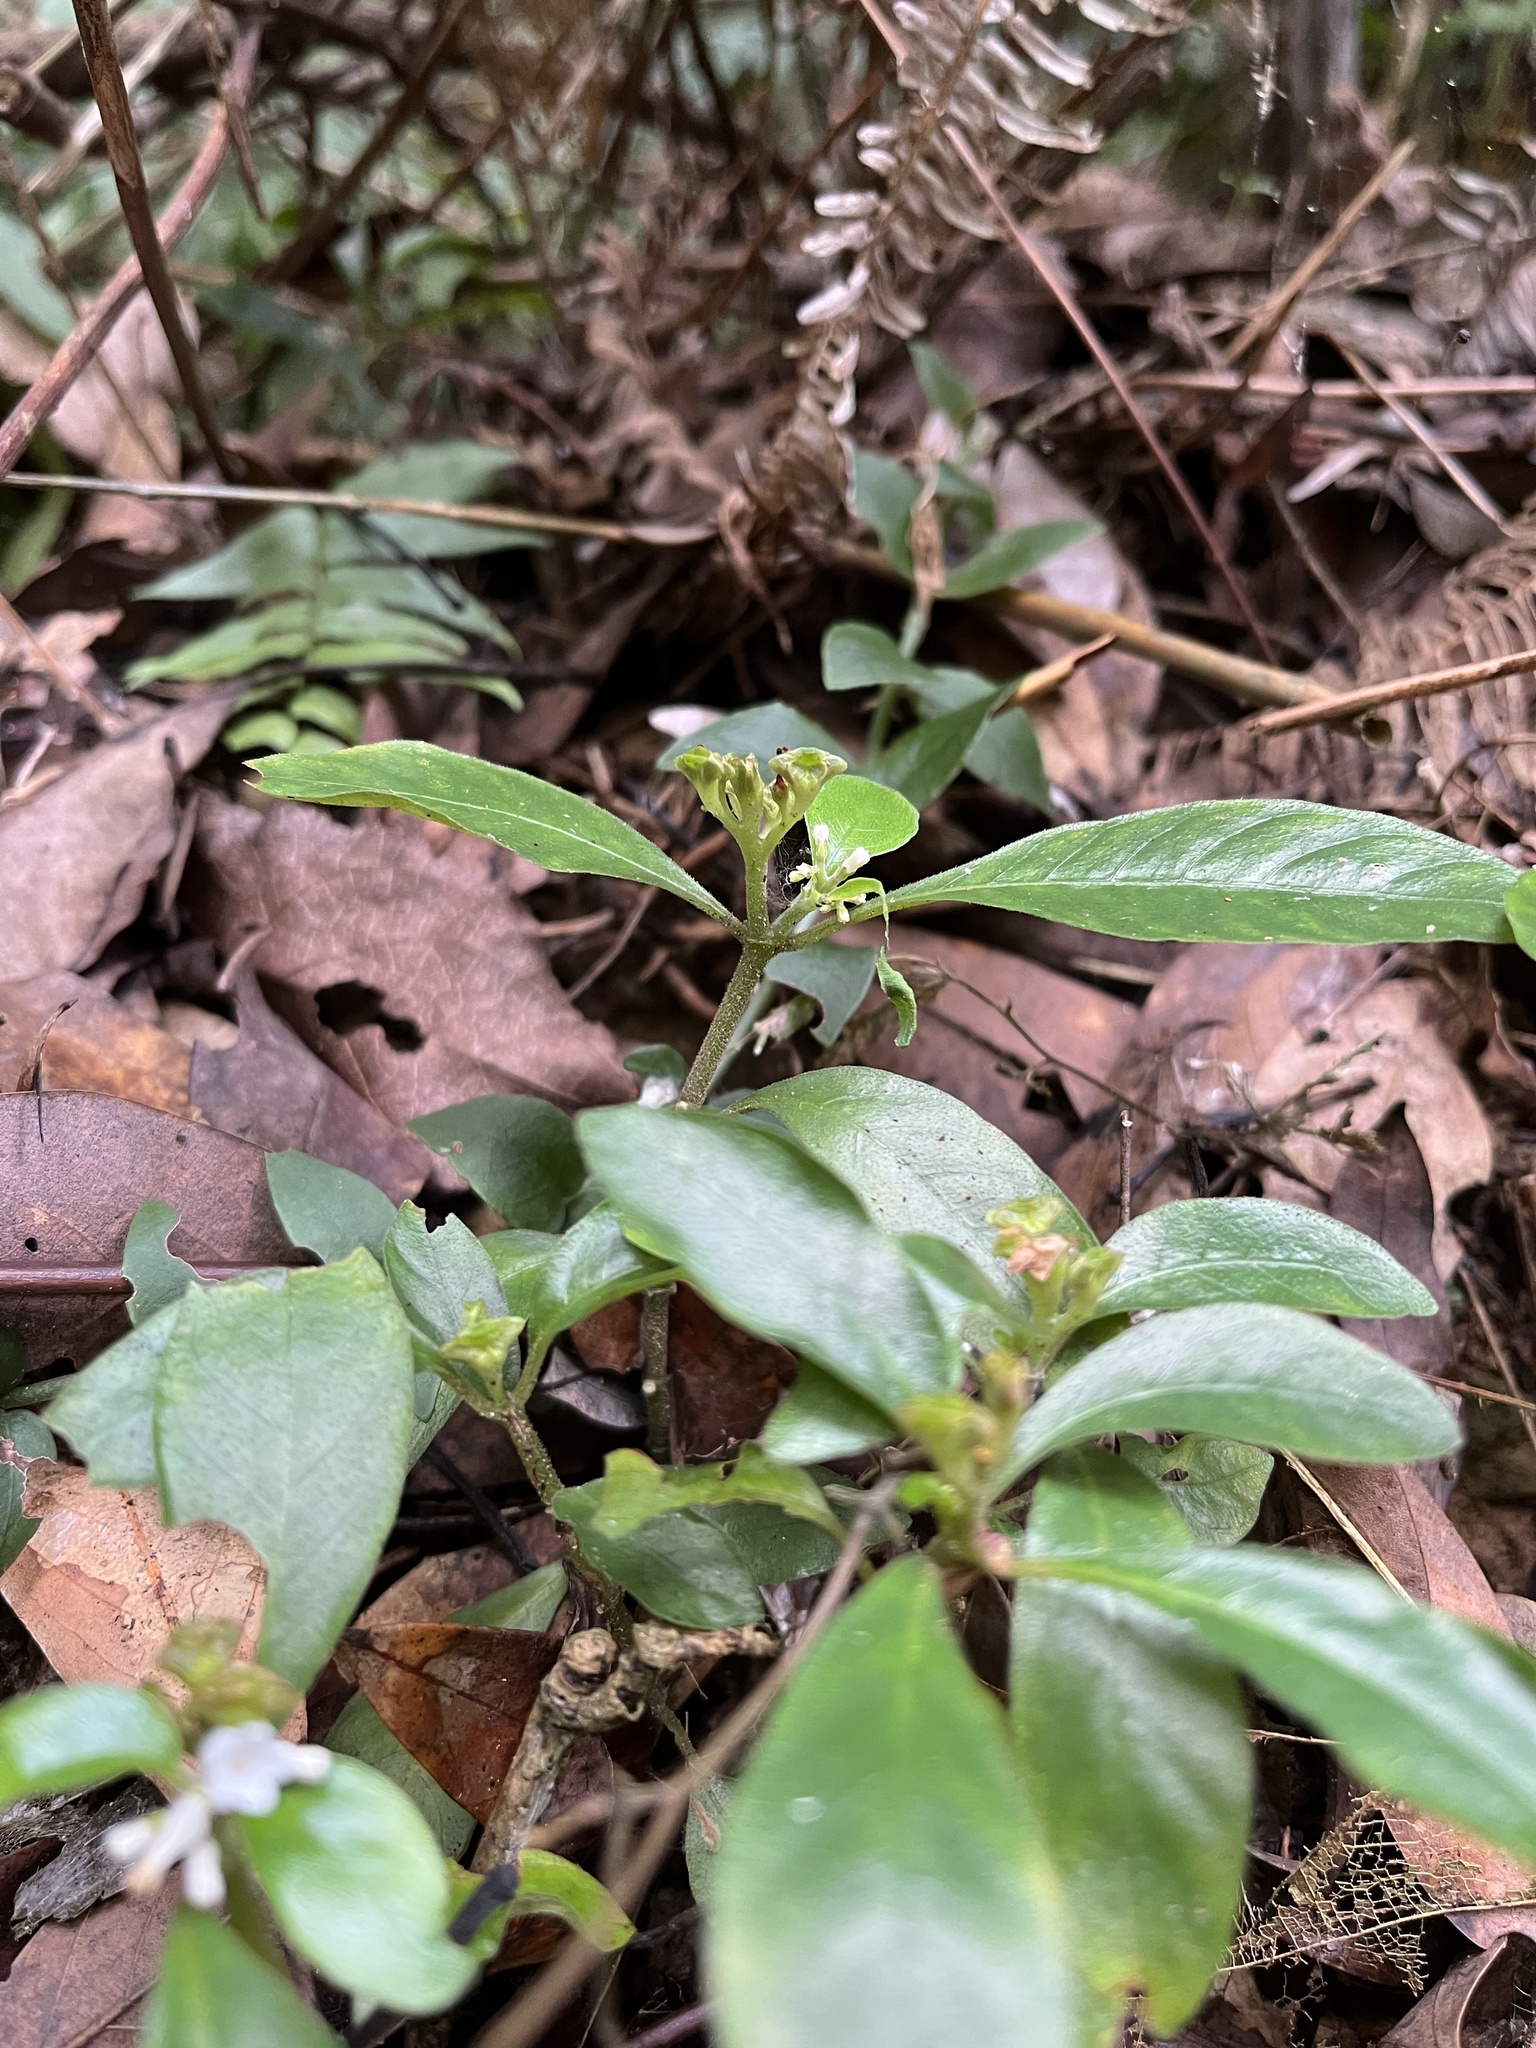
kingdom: Plantae
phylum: Tracheophyta
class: Magnoliopsida
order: Gentianales
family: Rubiaceae
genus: Ophiorrhiza
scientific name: Ophiorrhiza pumila
